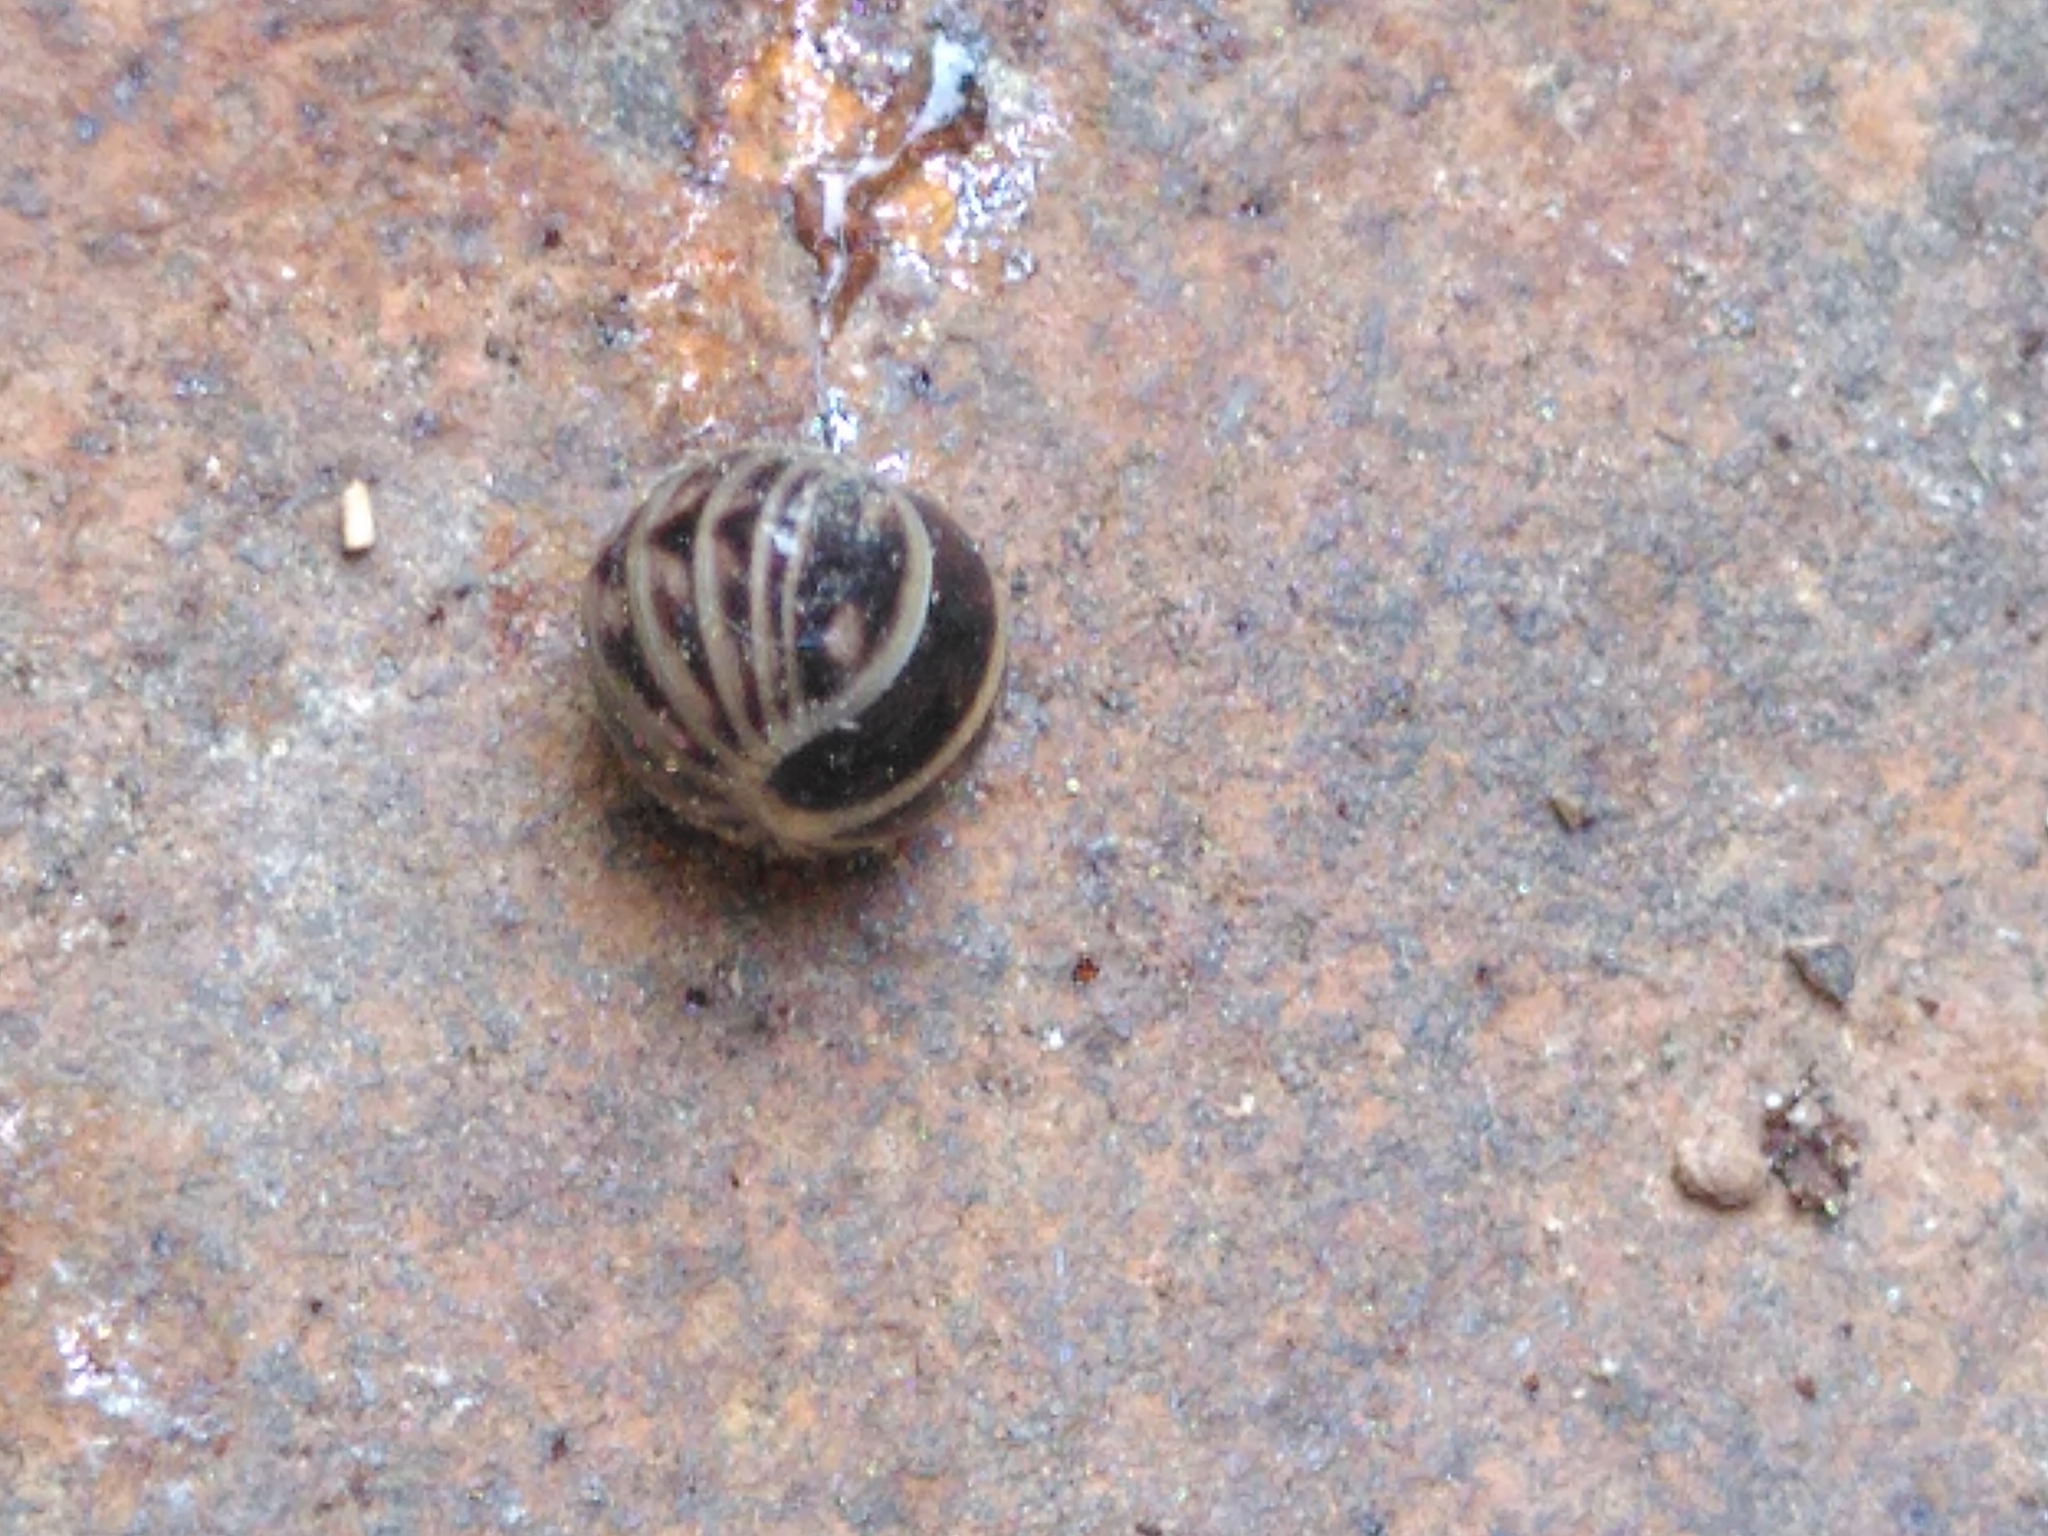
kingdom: Animalia
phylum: Arthropoda
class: Diplopoda
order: Glomerida
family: Glomeridae
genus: Glomeris
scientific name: Glomeris marginata
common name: Bordered pill millipede
